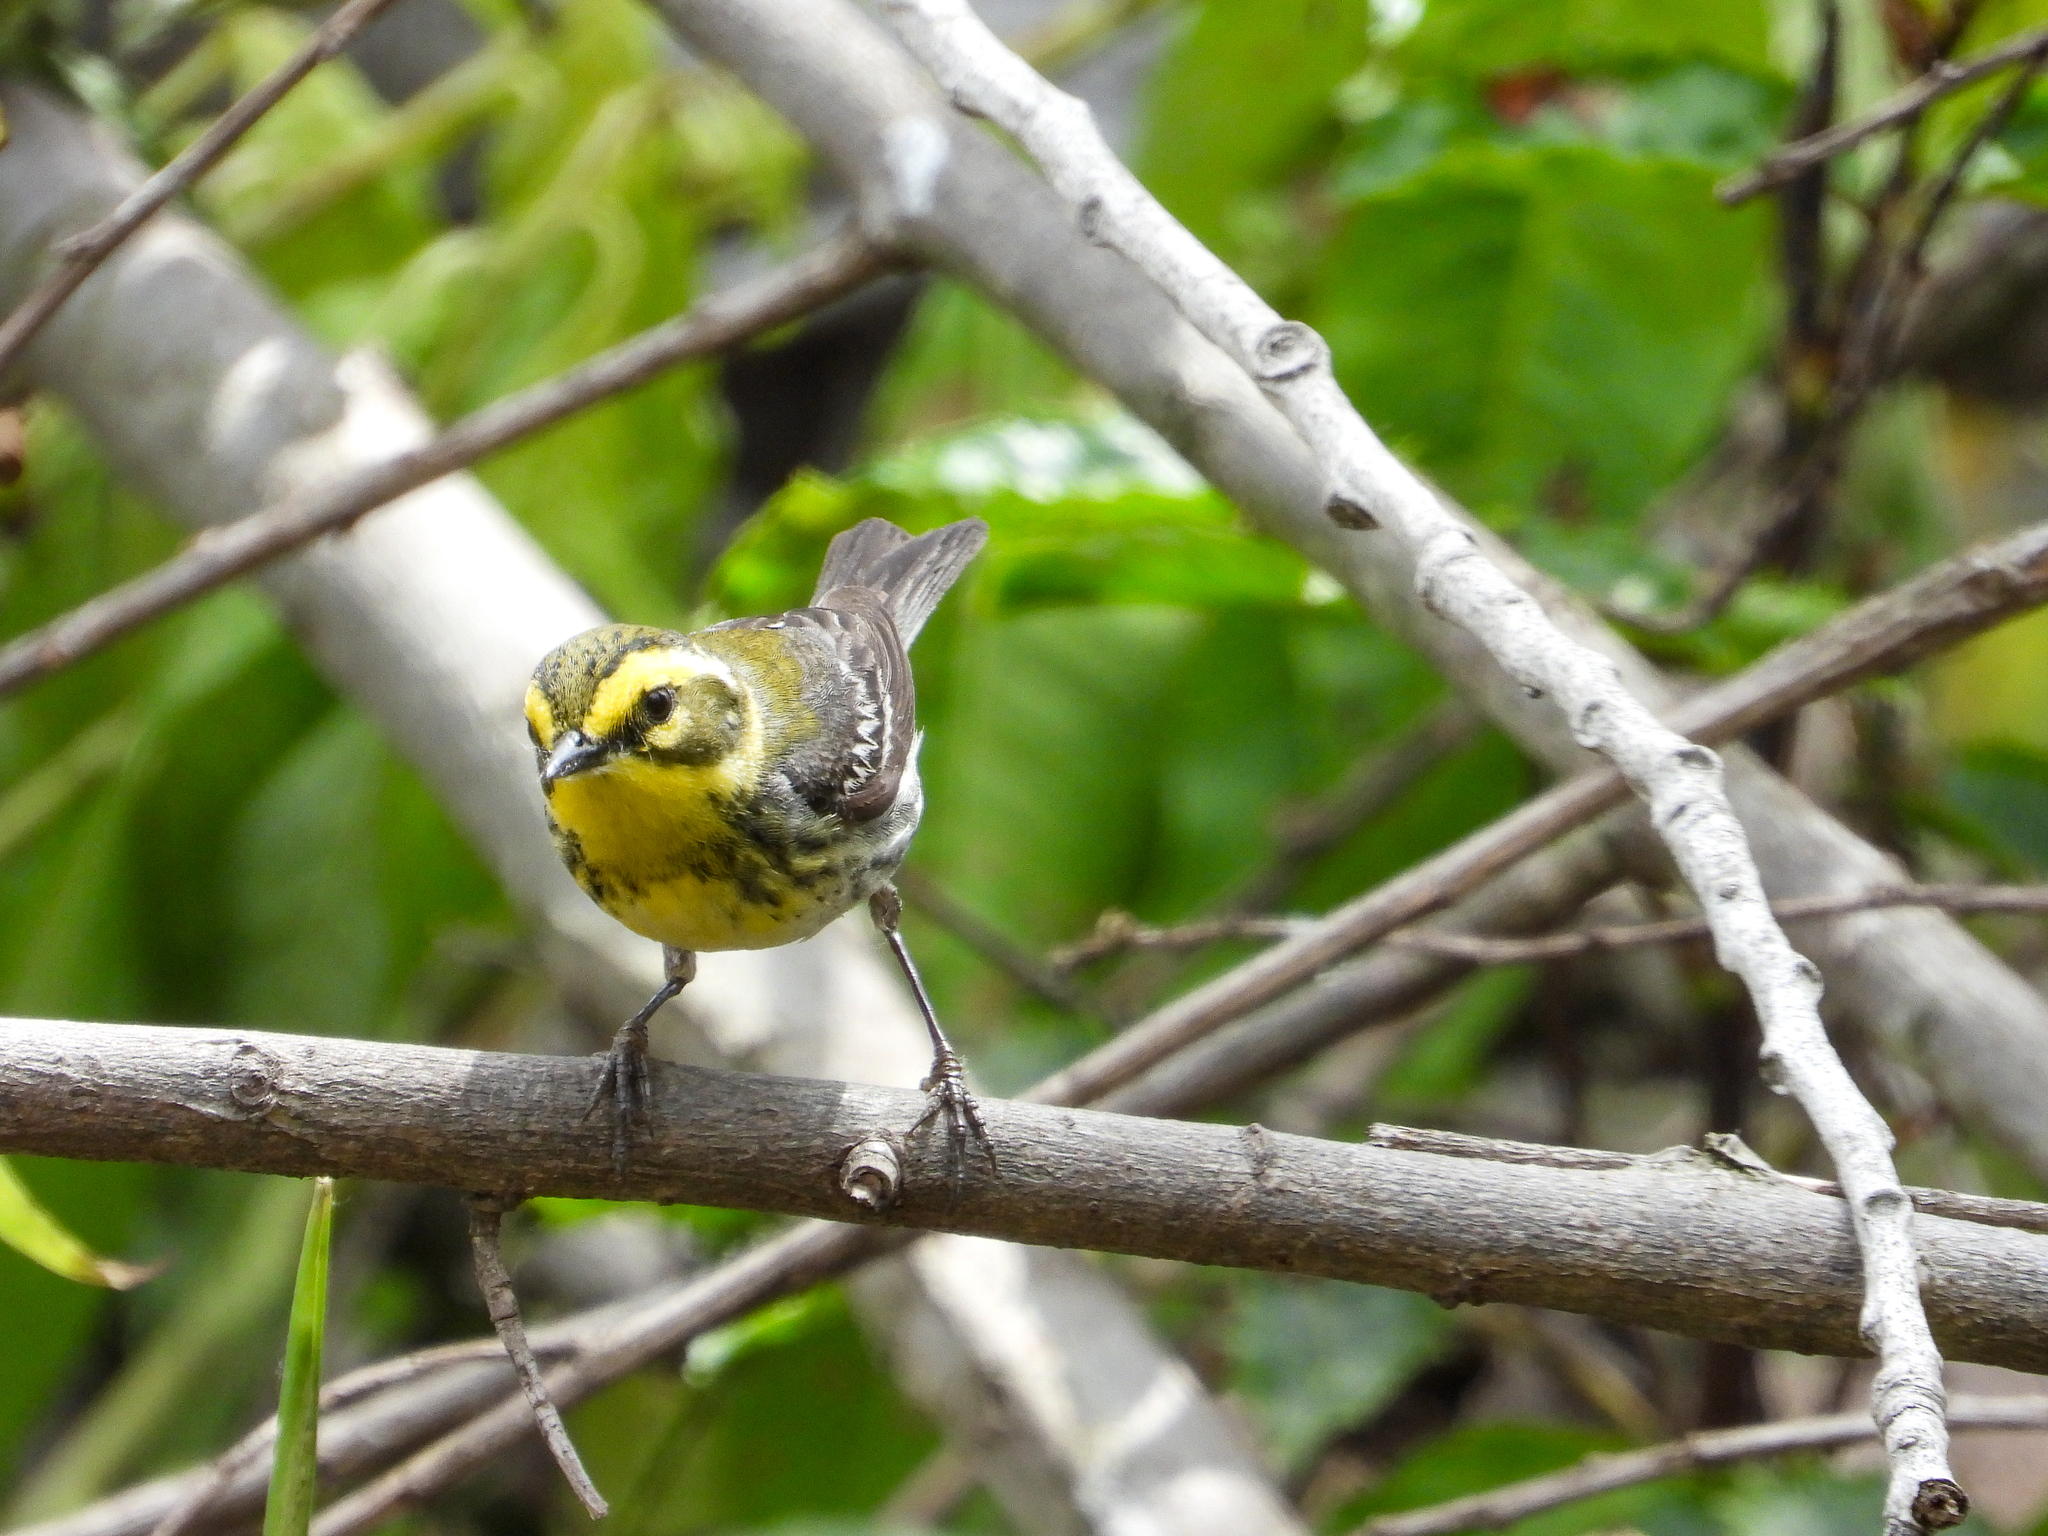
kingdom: Animalia
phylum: Chordata
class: Aves
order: Passeriformes
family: Parulidae
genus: Setophaga
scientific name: Setophaga townsendi
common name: Townsend's warbler
